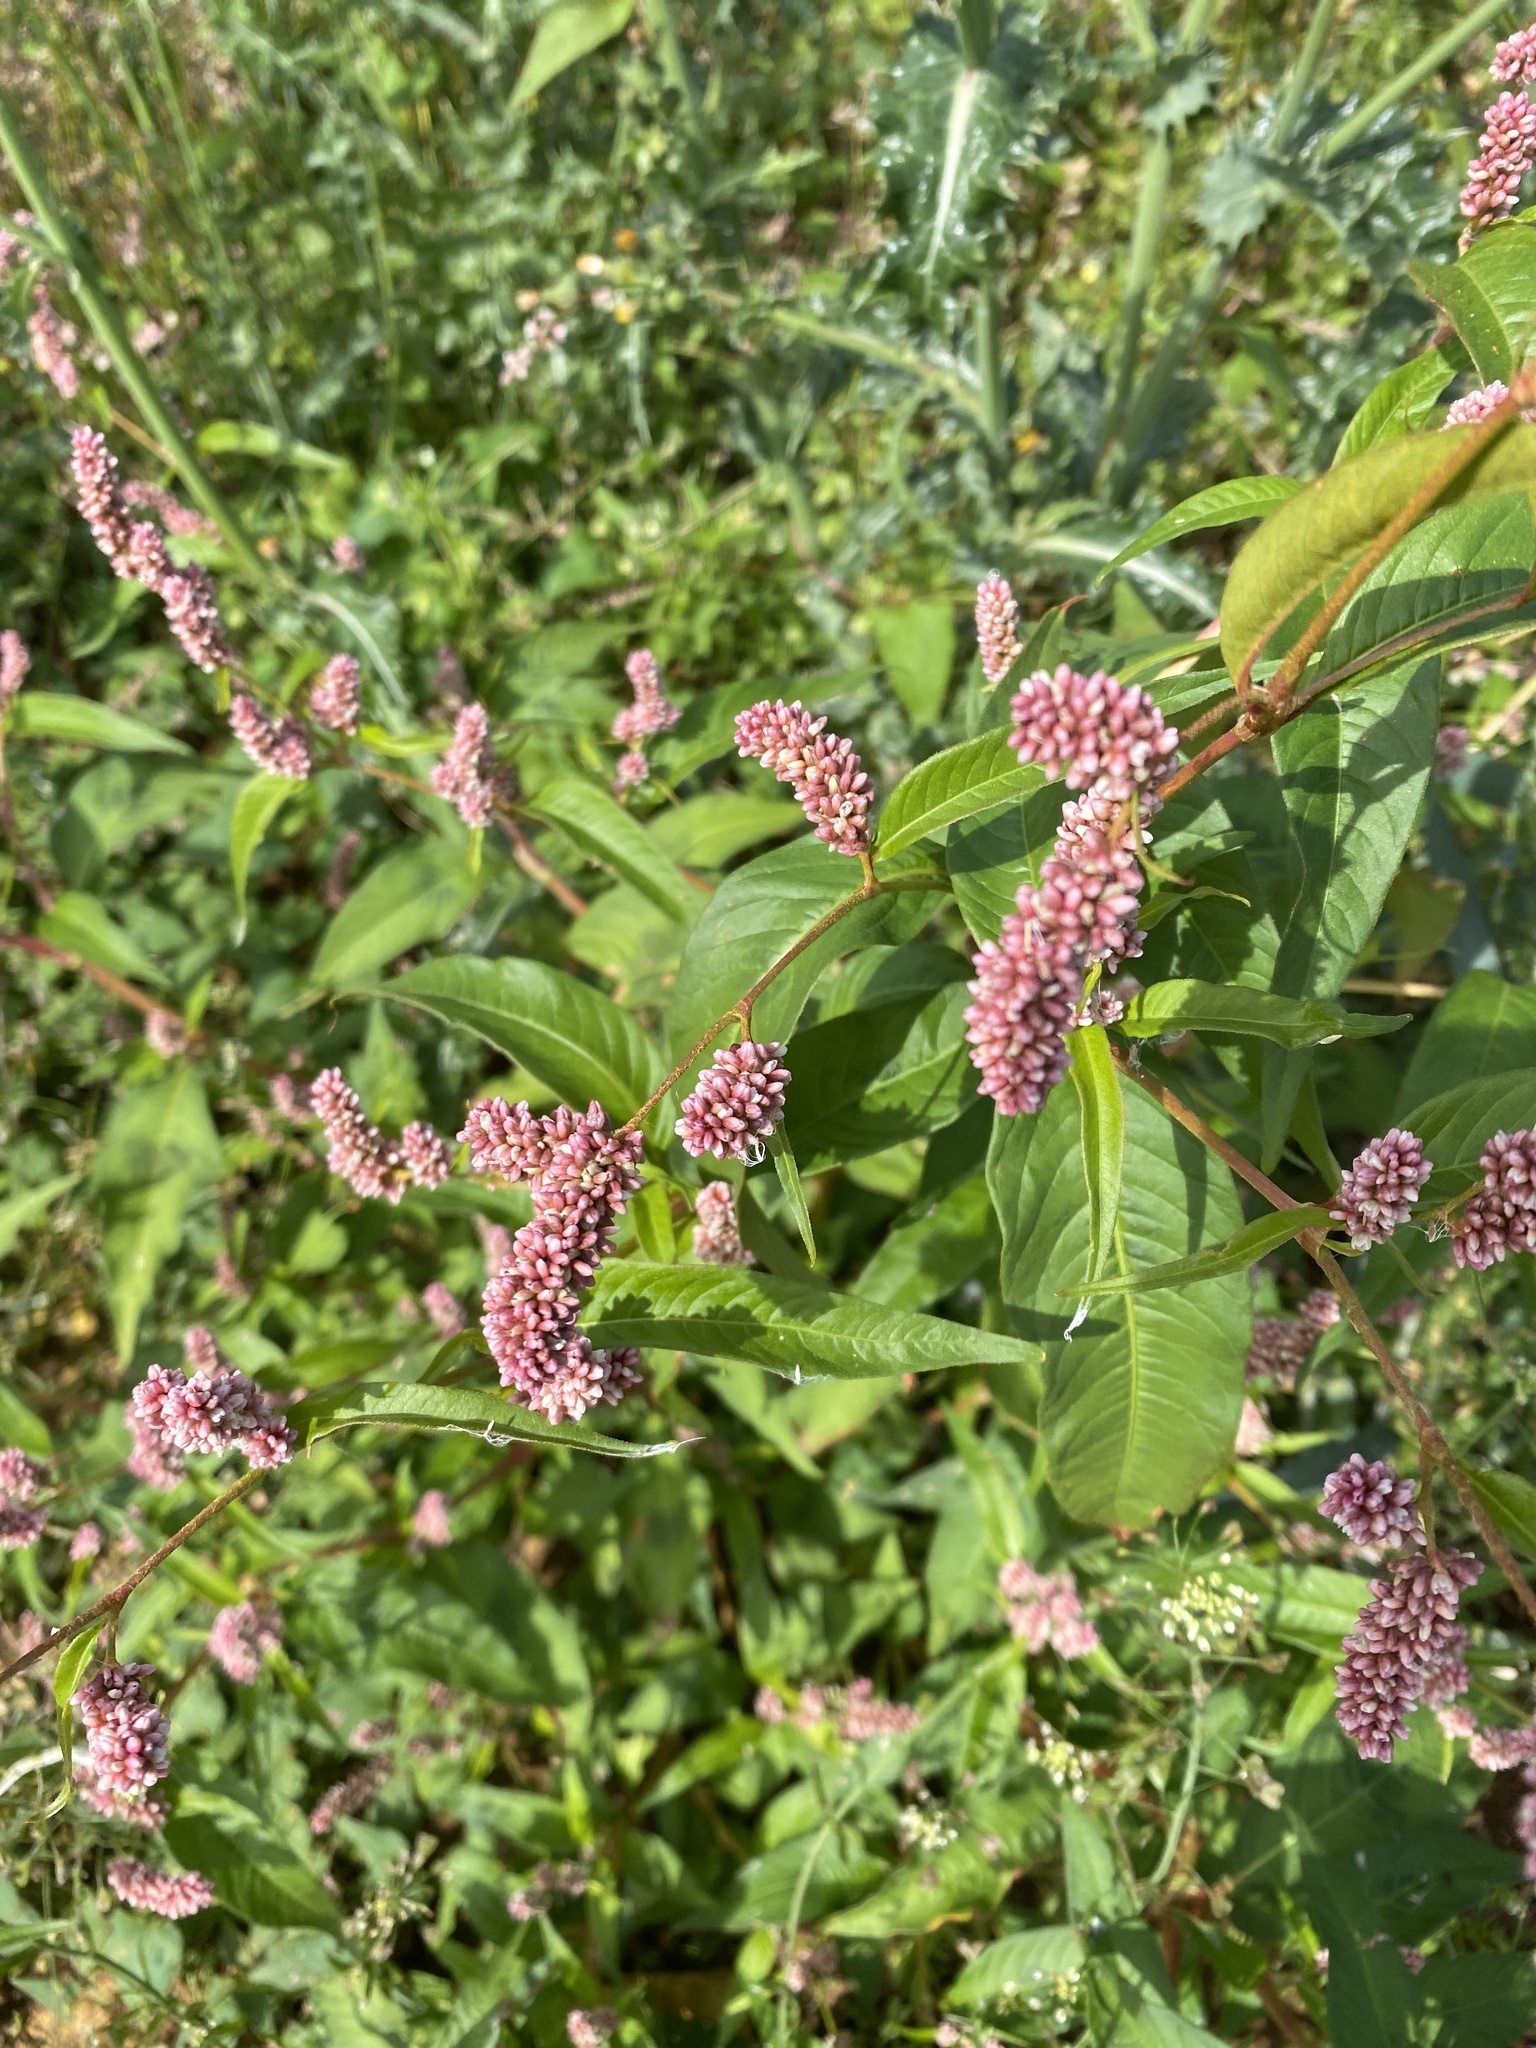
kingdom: Plantae
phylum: Tracheophyta
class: Magnoliopsida
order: Caryophyllales
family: Polygonaceae
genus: Persicaria
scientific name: Persicaria maculosa
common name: Redshank
